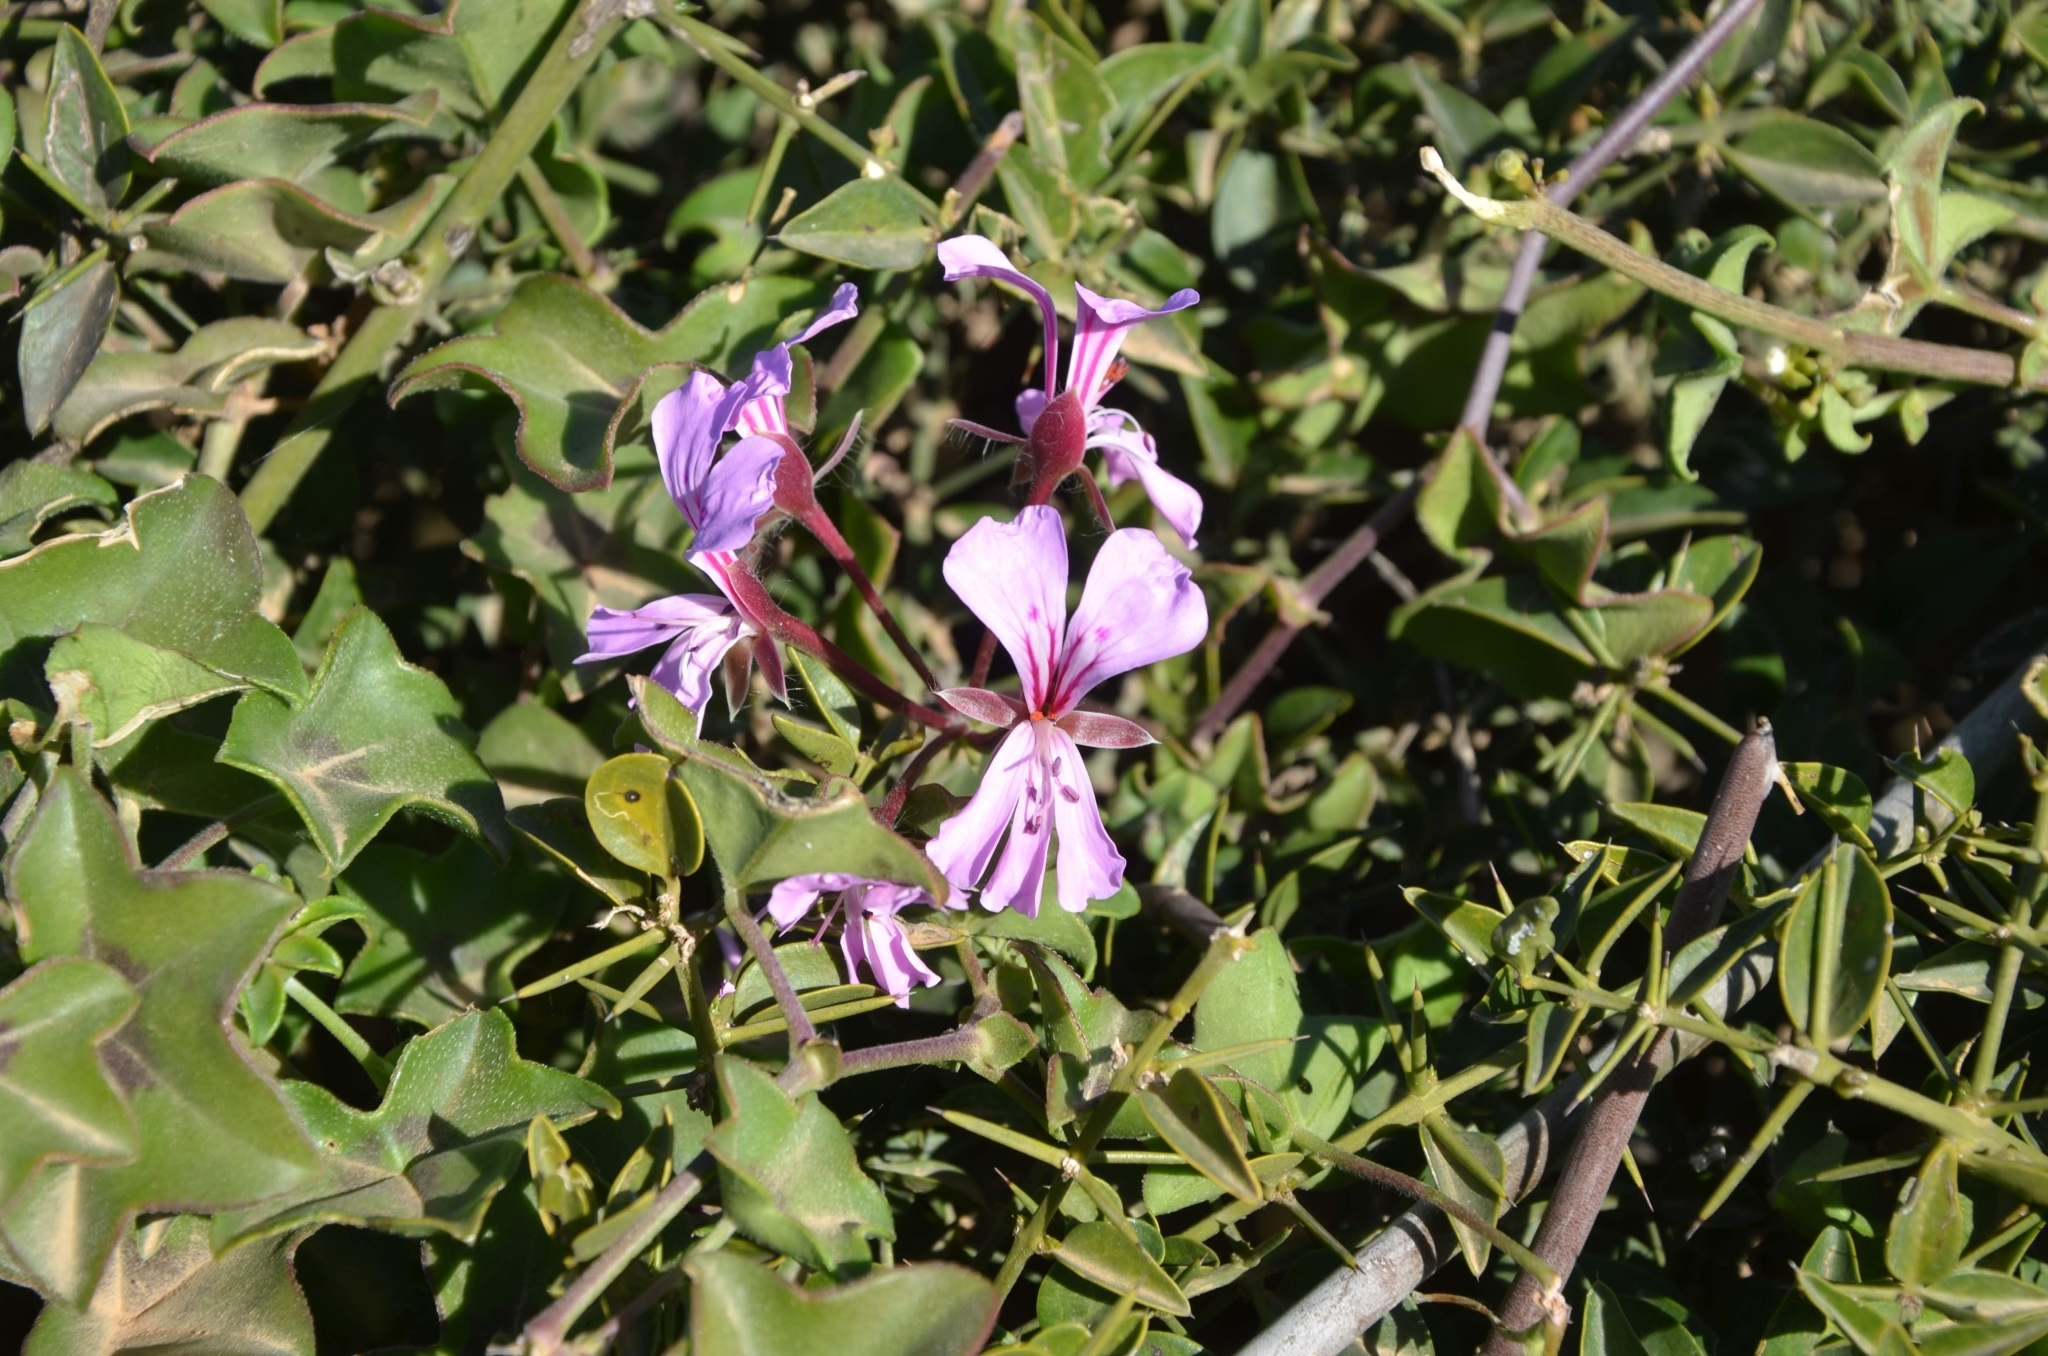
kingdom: Plantae
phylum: Tracheophyta
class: Magnoliopsida
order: Geraniales
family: Geraniaceae
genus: Pelargonium
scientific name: Pelargonium peltatum
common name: Ivyleaf geranium
